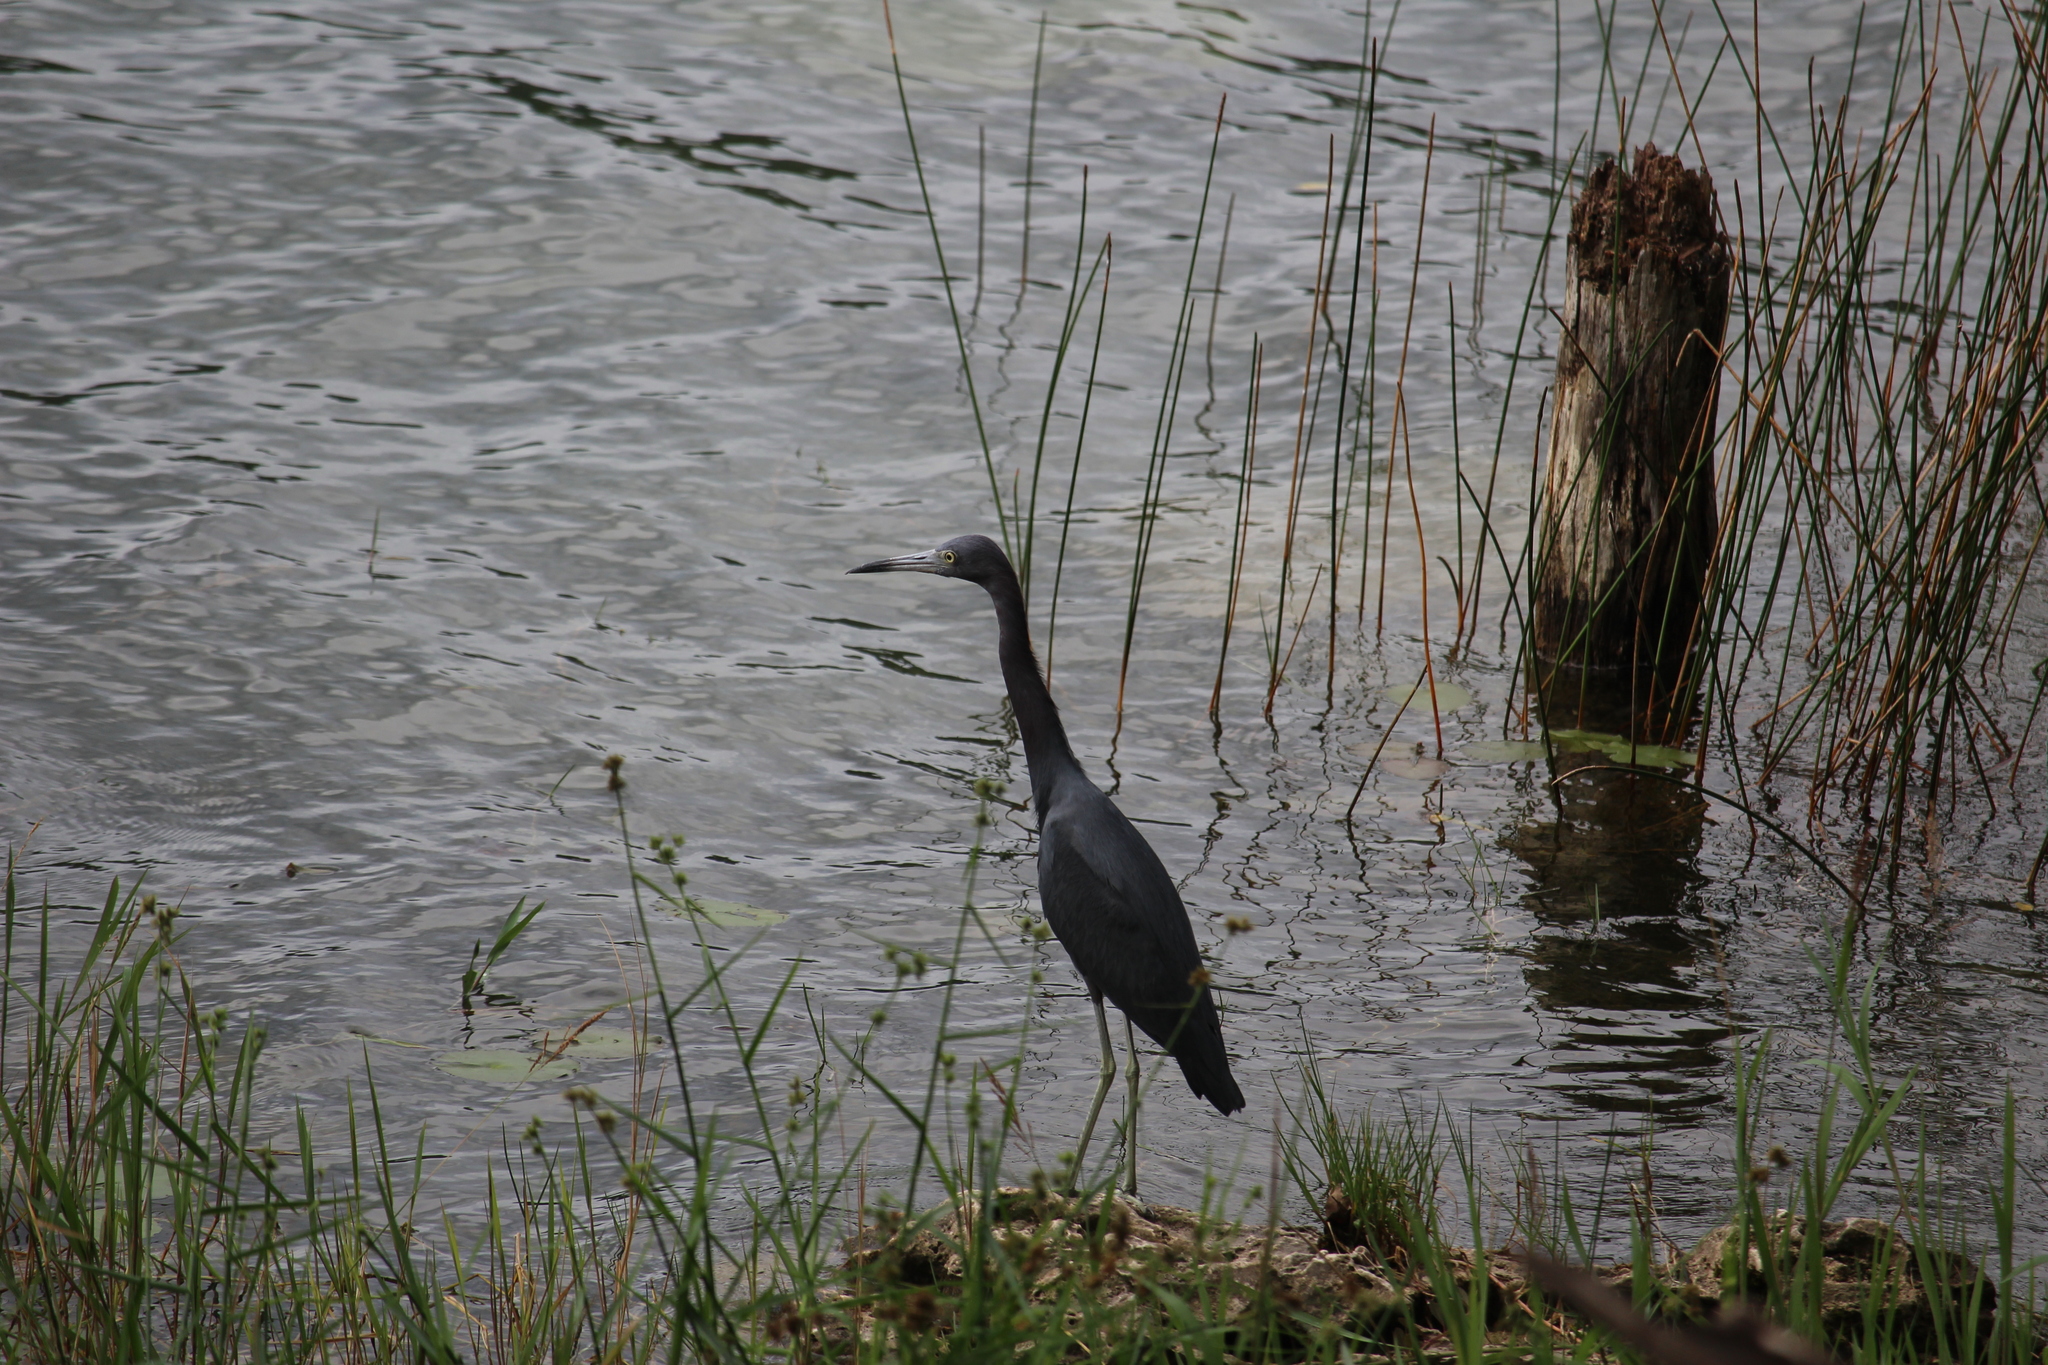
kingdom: Animalia
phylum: Chordata
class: Aves
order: Pelecaniformes
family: Ardeidae
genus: Egretta
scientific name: Egretta caerulea
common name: Little blue heron
